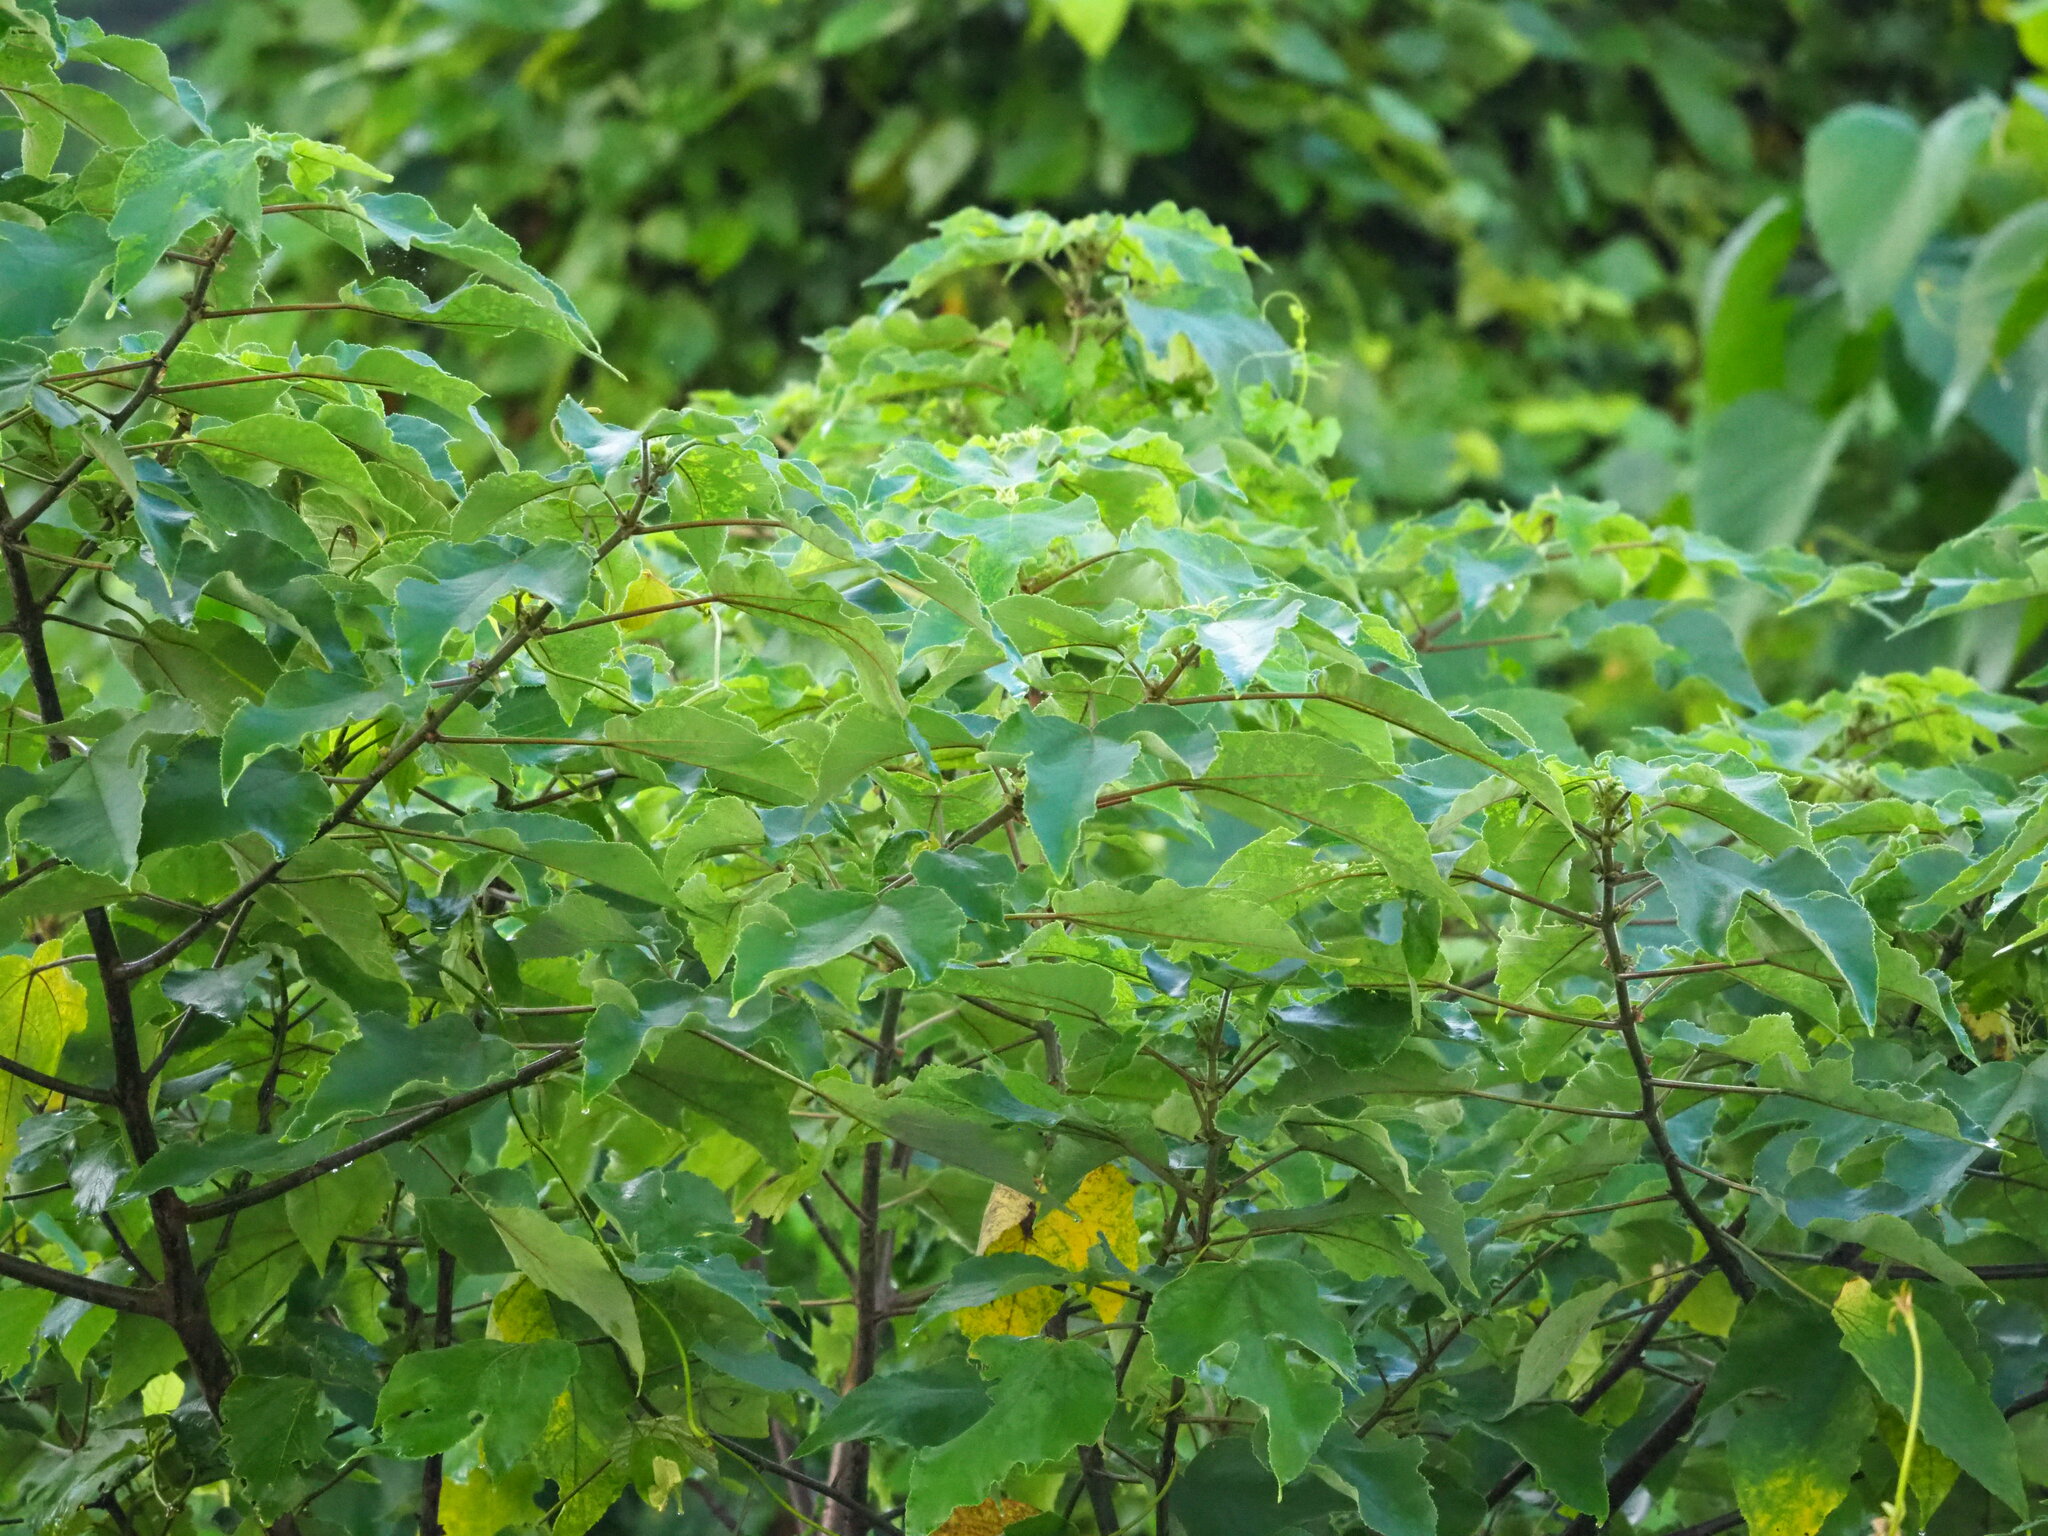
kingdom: Plantae
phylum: Tracheophyta
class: Magnoliopsida
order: Rosales
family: Moraceae
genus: Broussonetia
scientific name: Broussonetia papyrifera
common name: Paper mulberry
